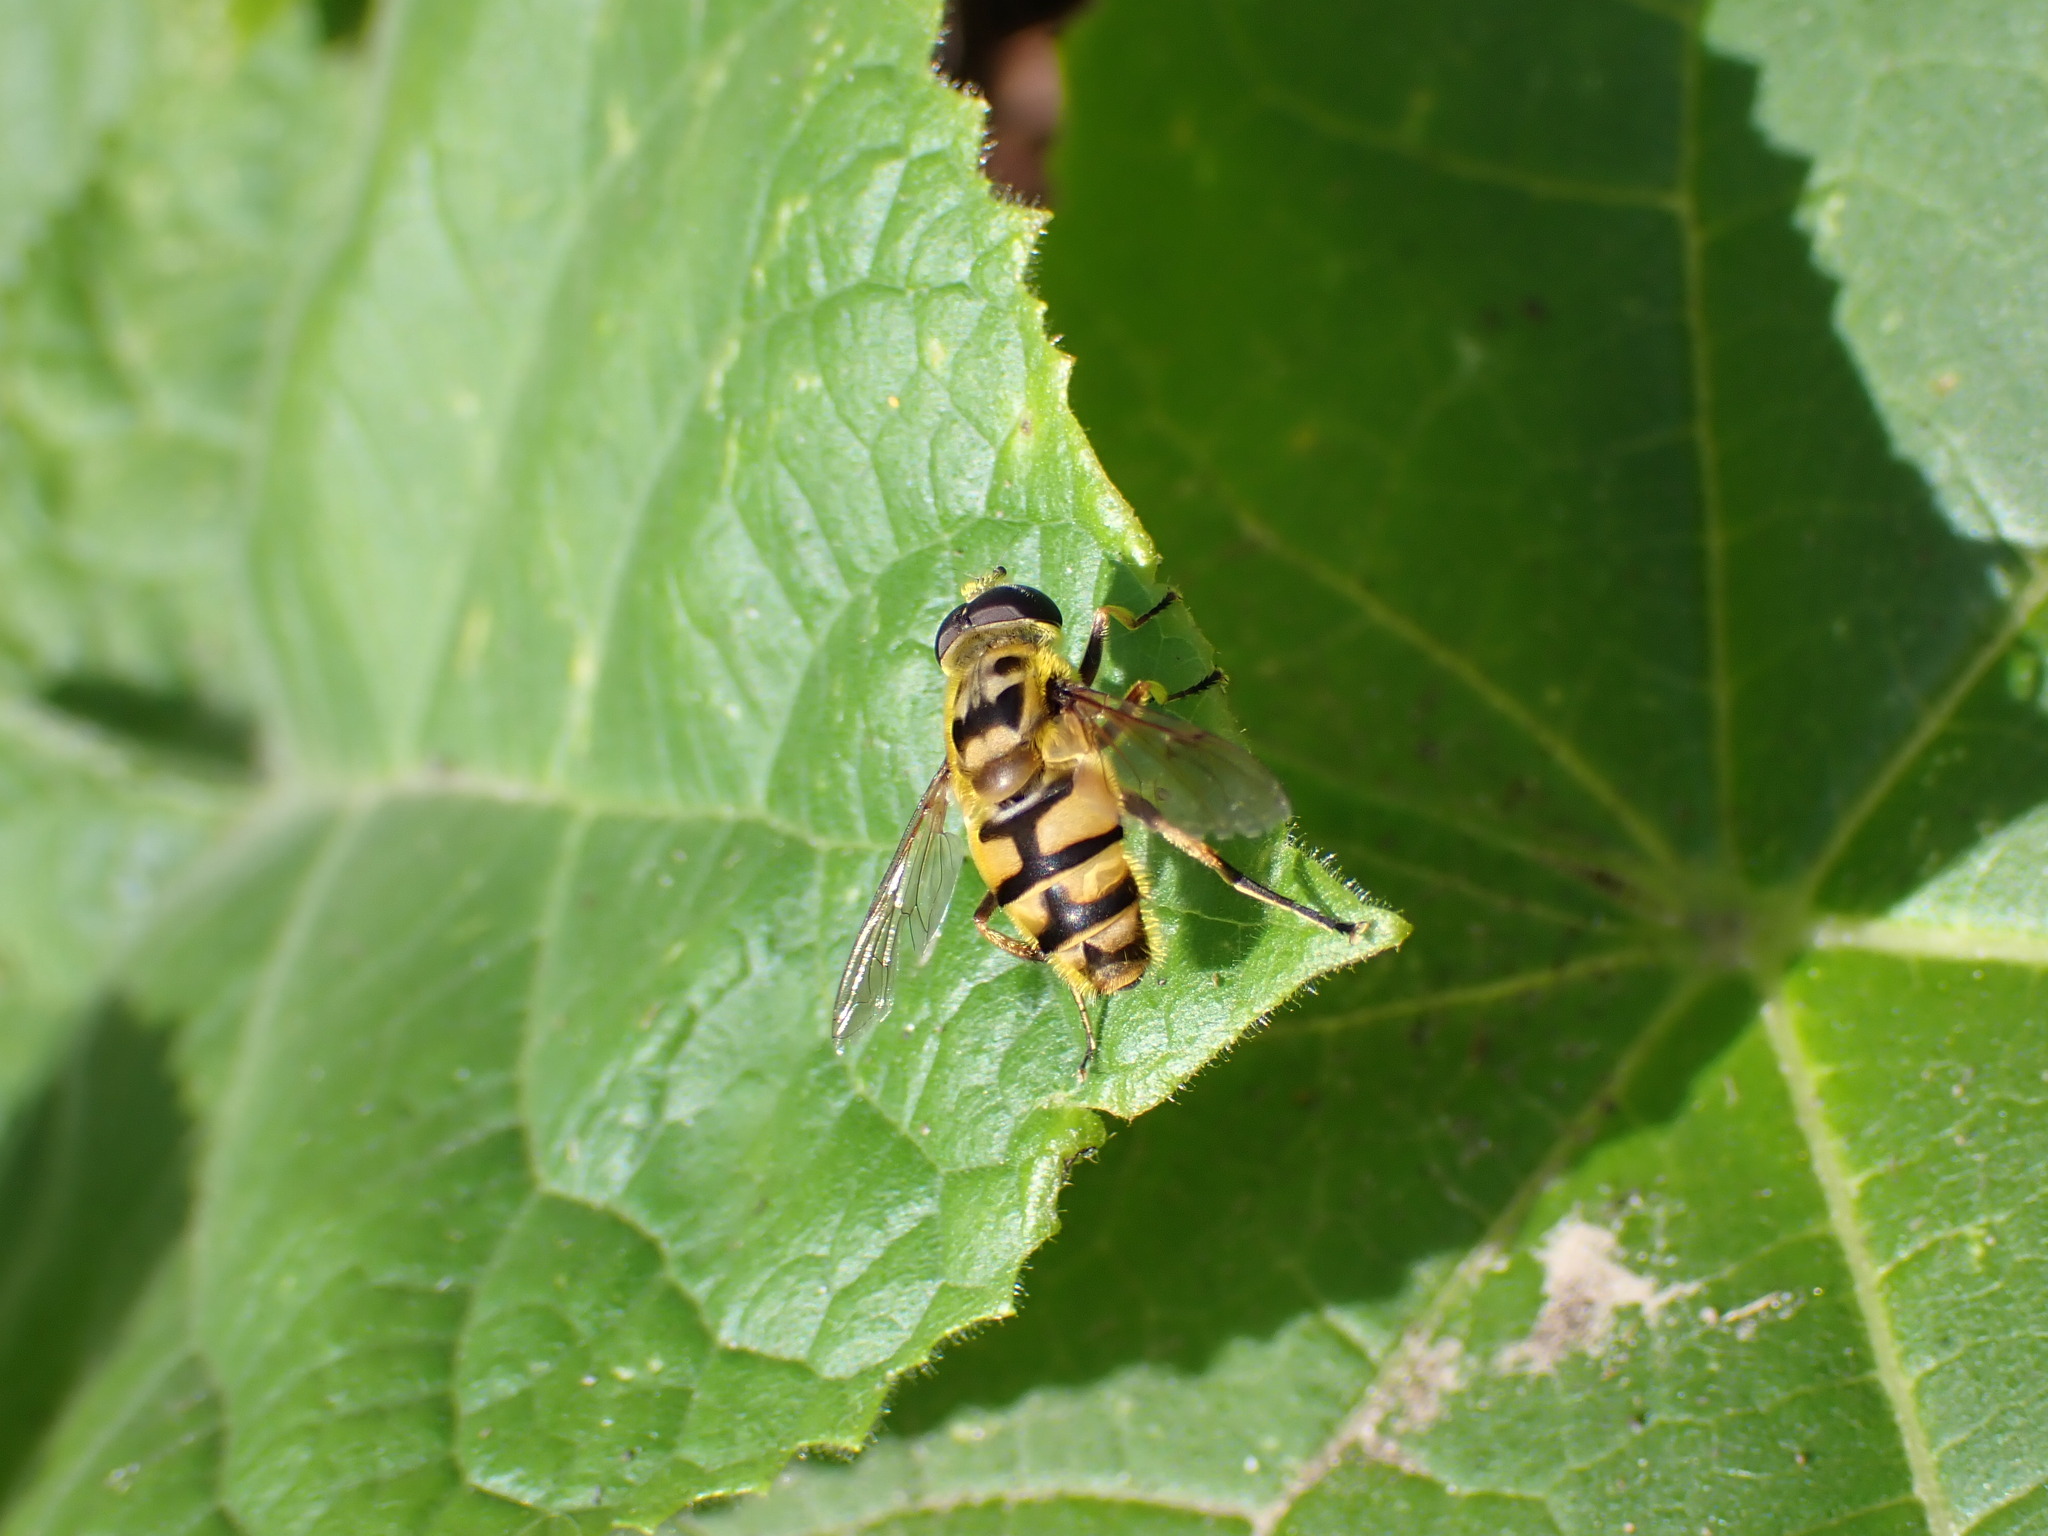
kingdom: Animalia
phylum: Arthropoda
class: Insecta
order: Diptera
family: Syrphidae
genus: Myathropa
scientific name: Myathropa florea
